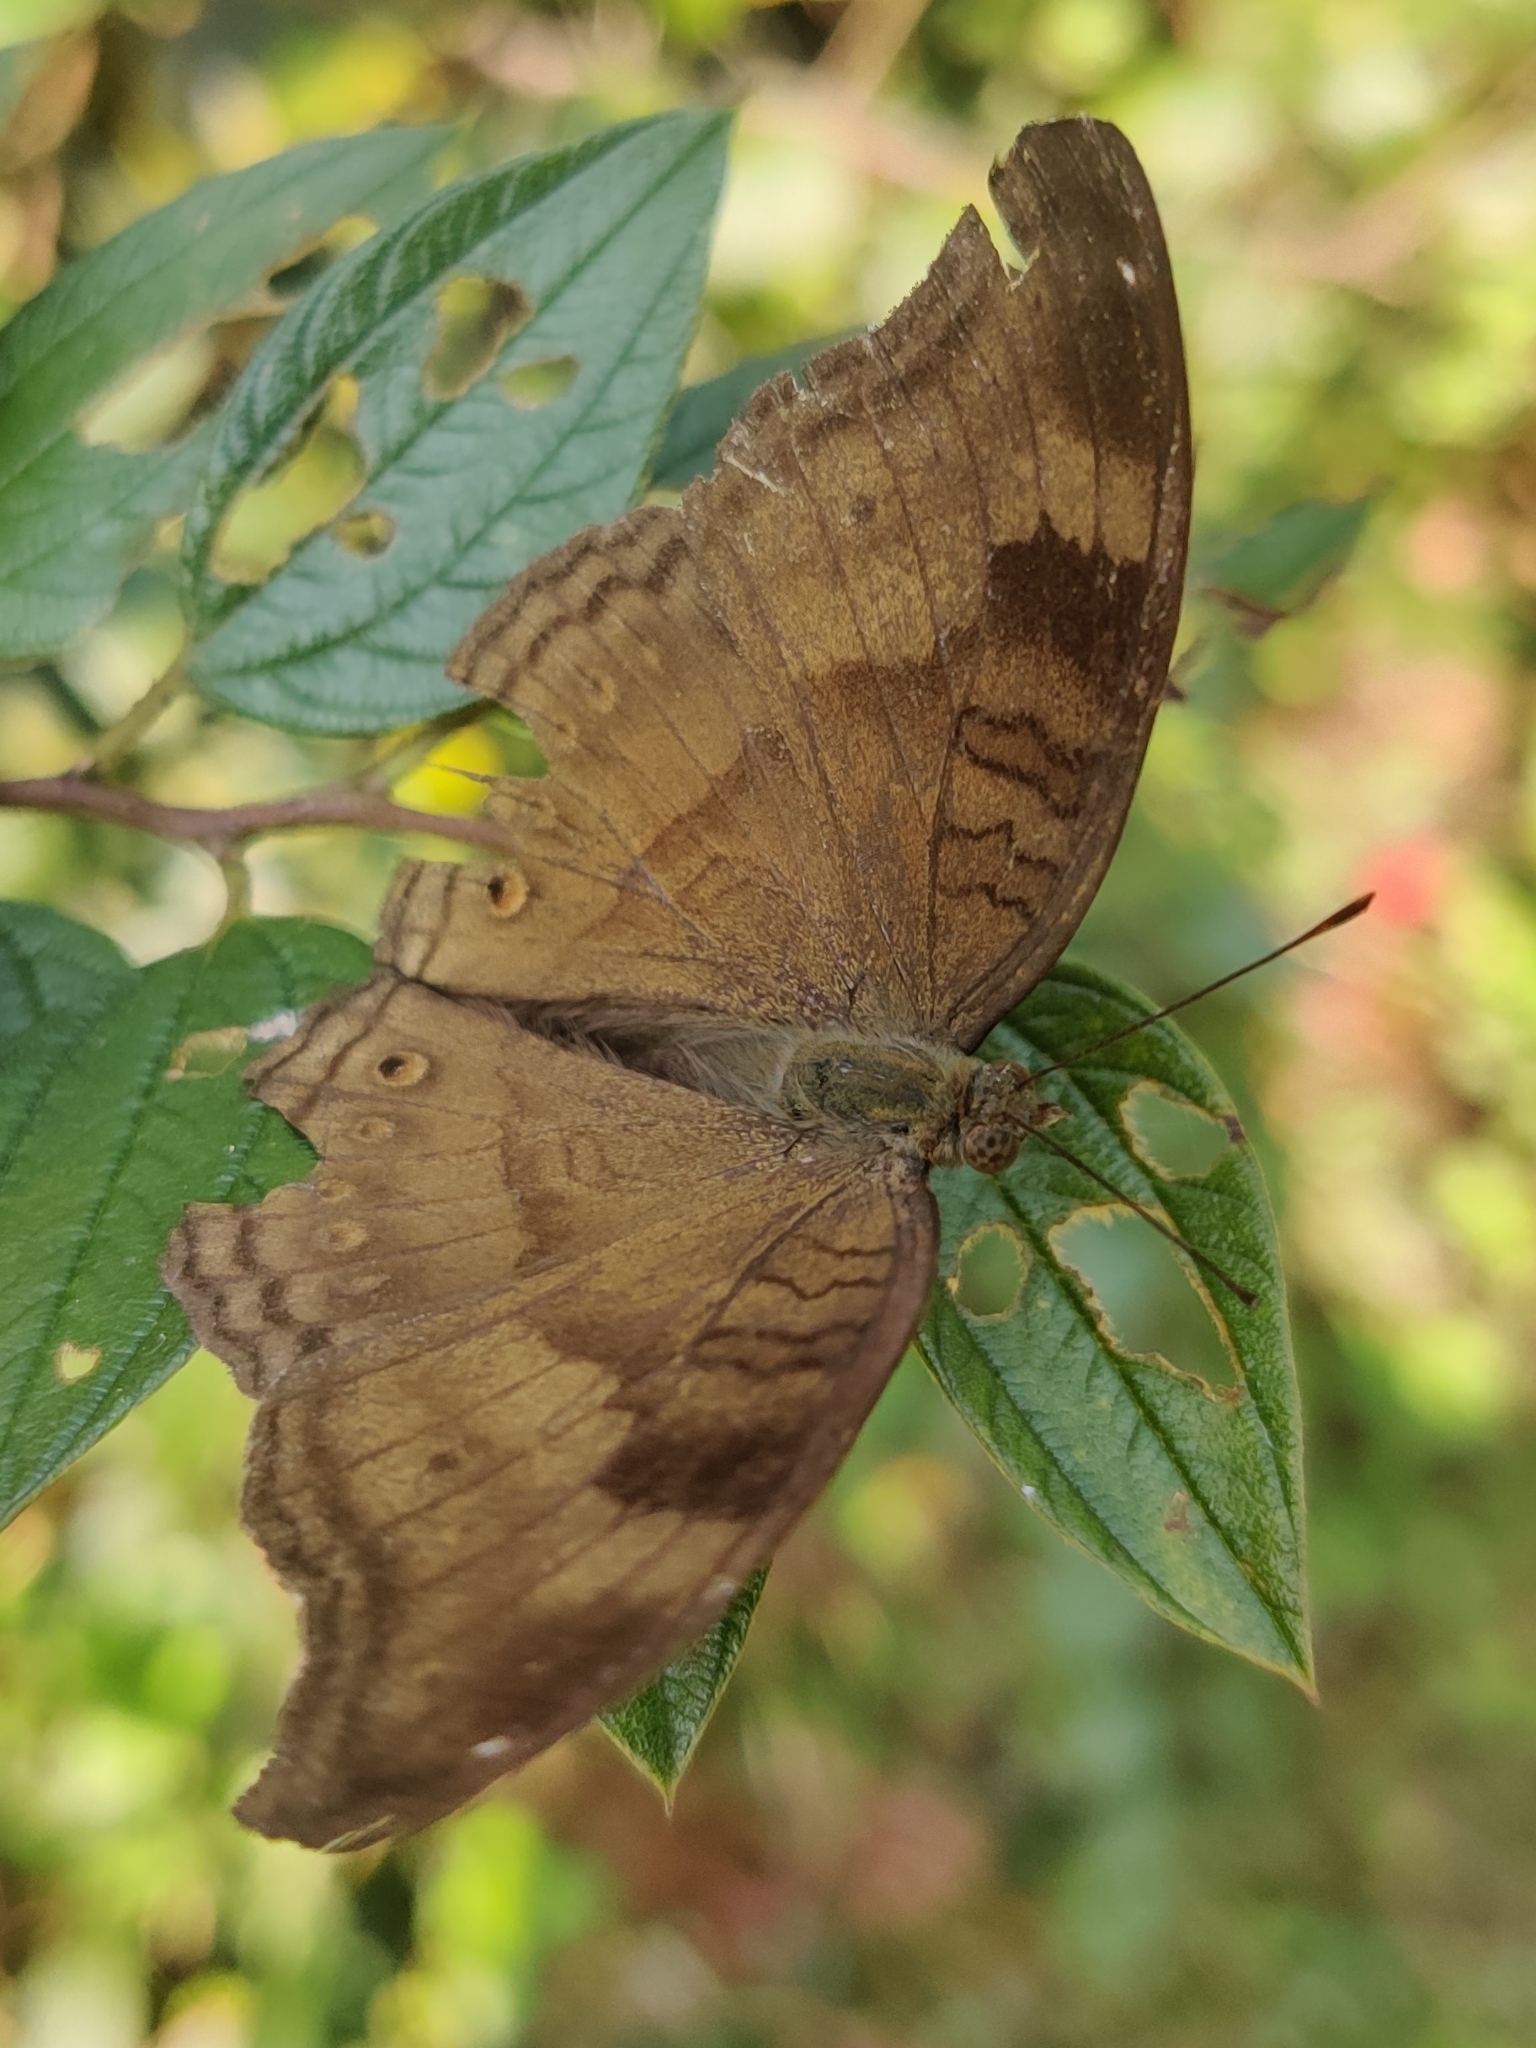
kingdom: Animalia
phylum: Arthropoda
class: Insecta
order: Lepidoptera
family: Nymphalidae
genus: Junonia
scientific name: Junonia iphita
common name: Chocolate pansy
